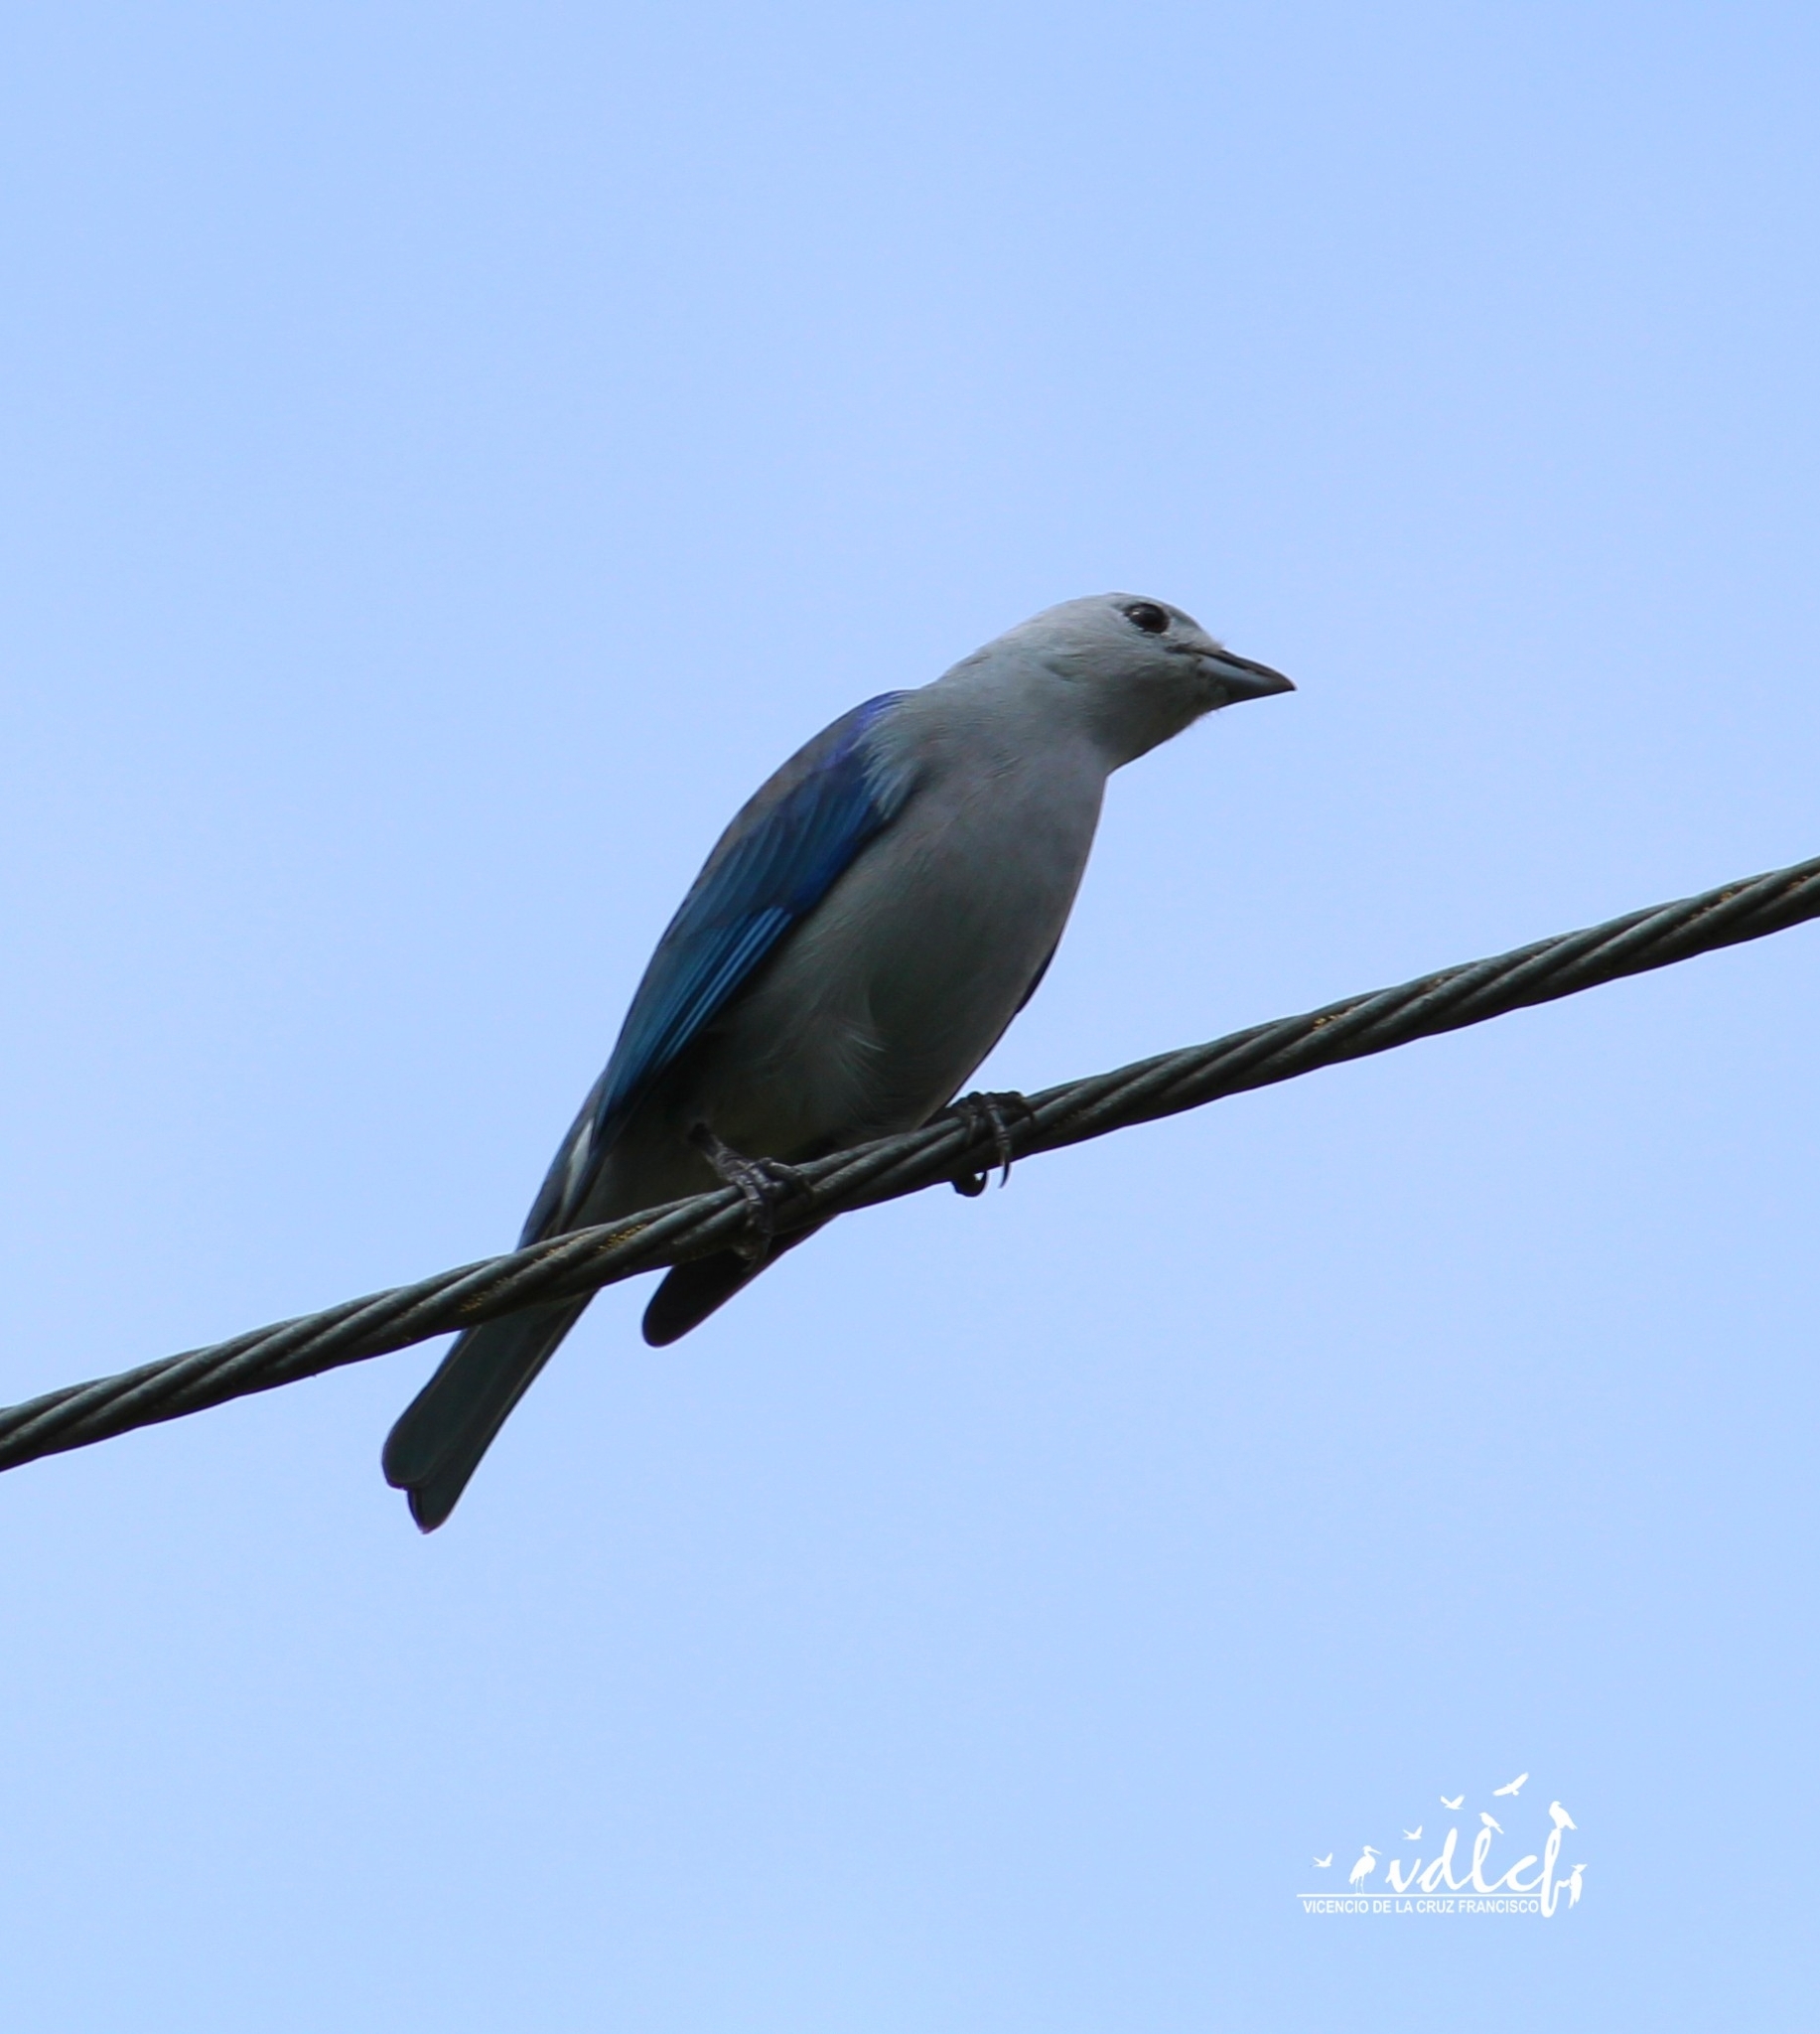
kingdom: Animalia
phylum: Chordata
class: Aves
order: Passeriformes
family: Thraupidae
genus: Thraupis
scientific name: Thraupis episcopus
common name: Blue-grey tanager
